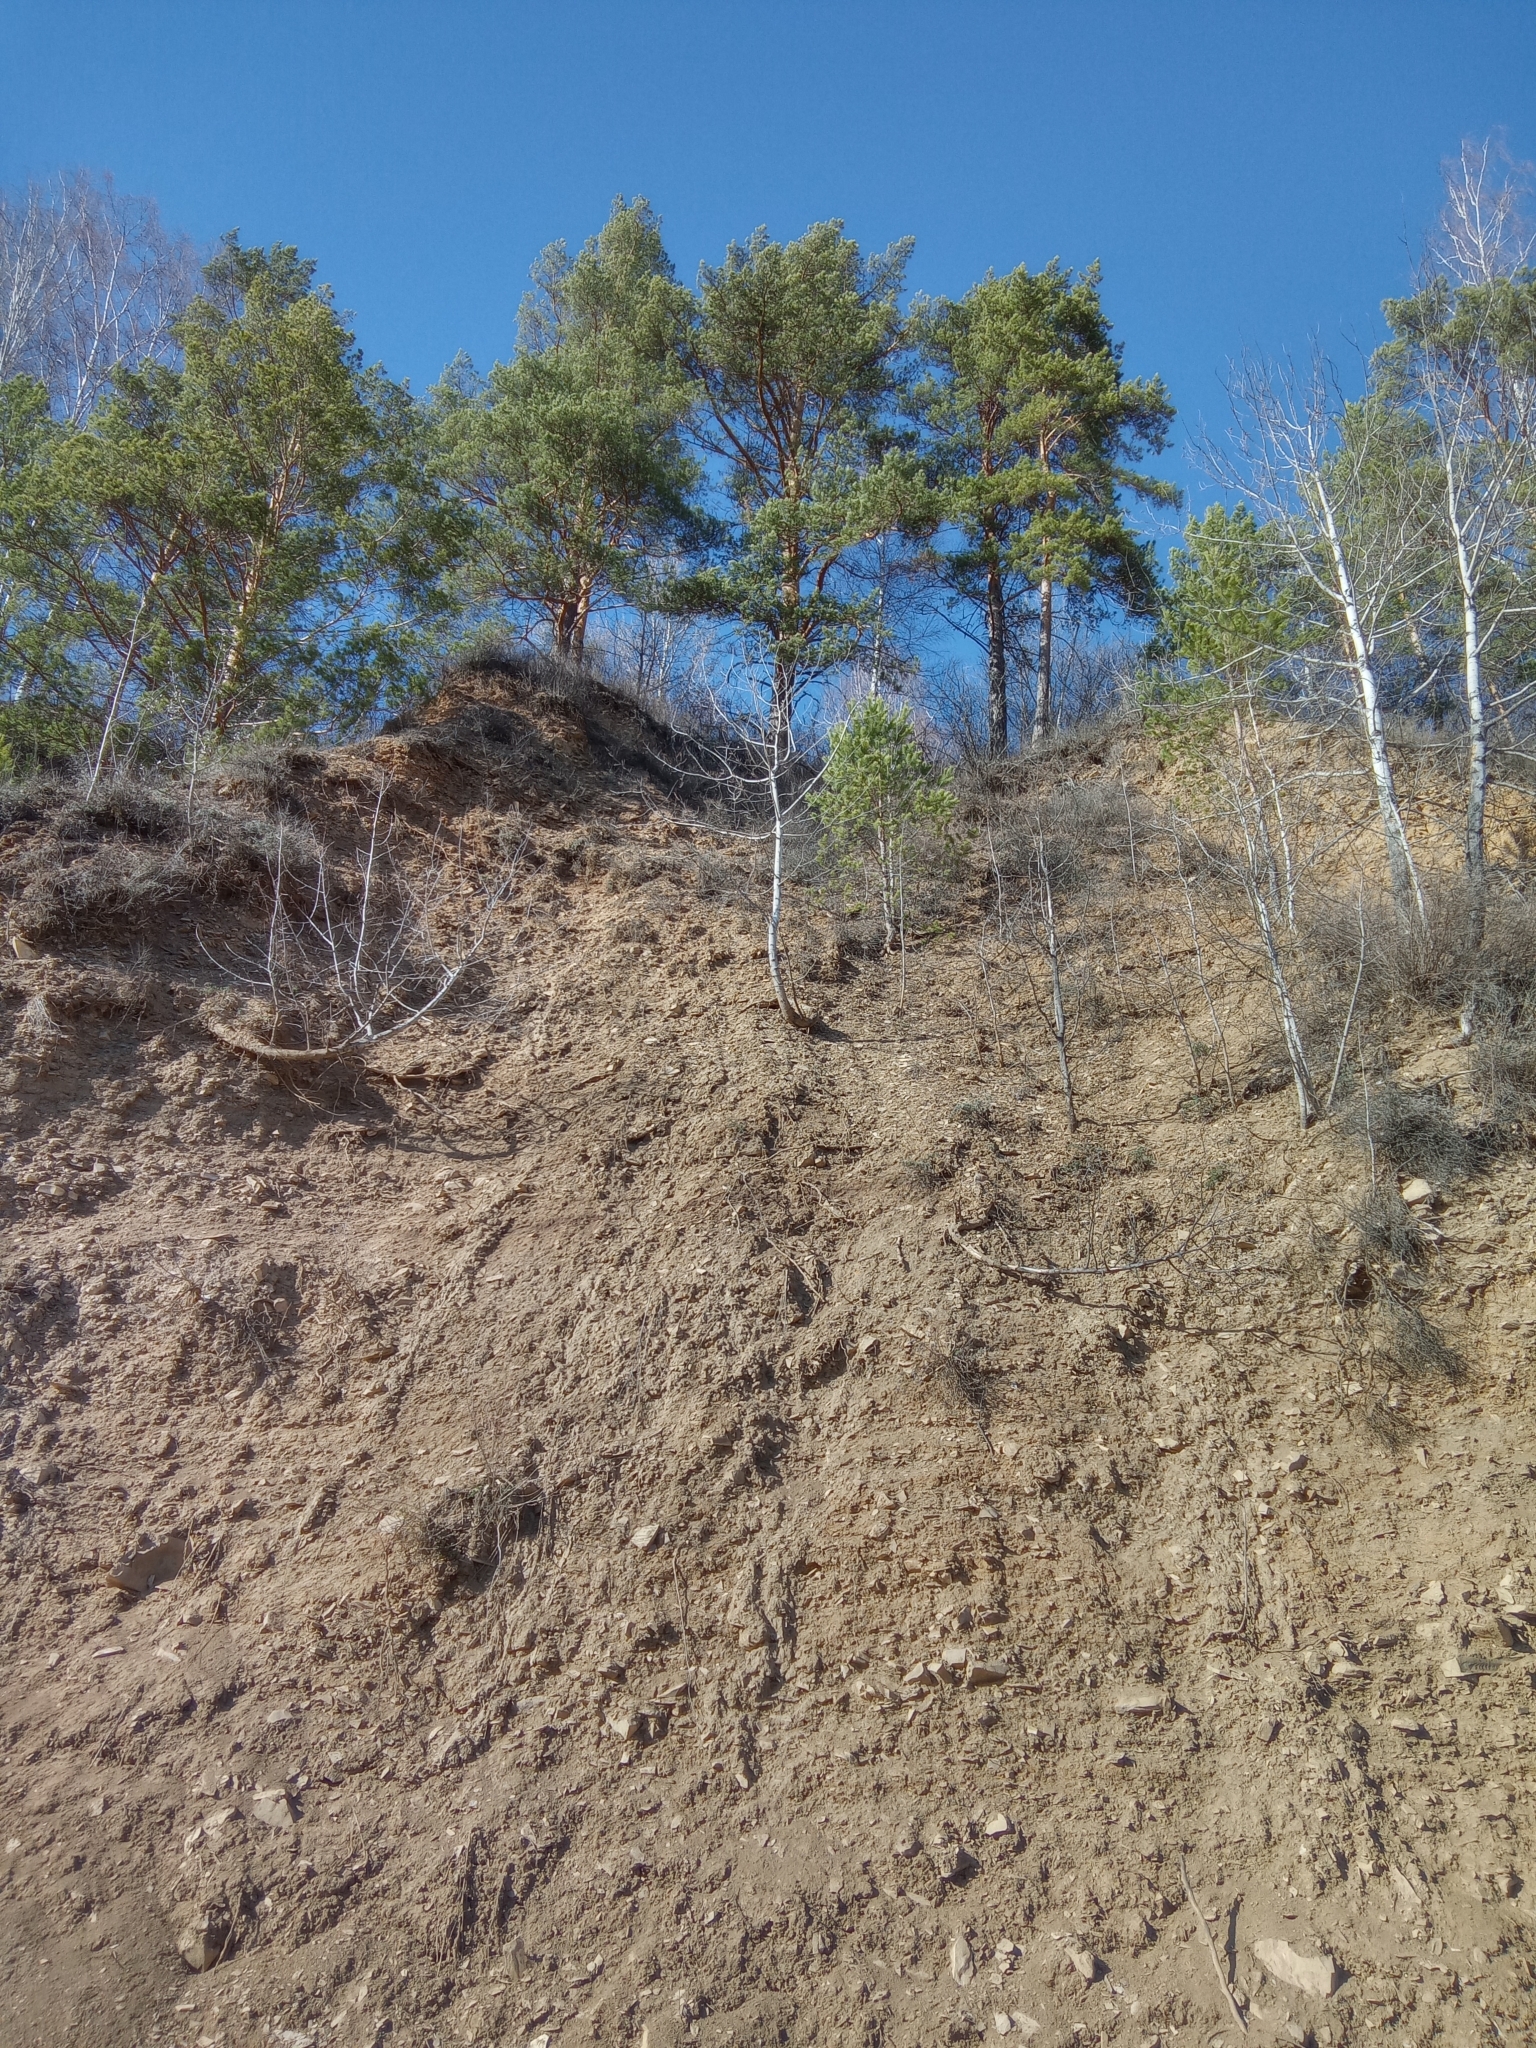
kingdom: Plantae
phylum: Tracheophyta
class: Pinopsida
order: Pinales
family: Pinaceae
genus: Pinus
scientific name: Pinus sylvestris
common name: Scots pine
